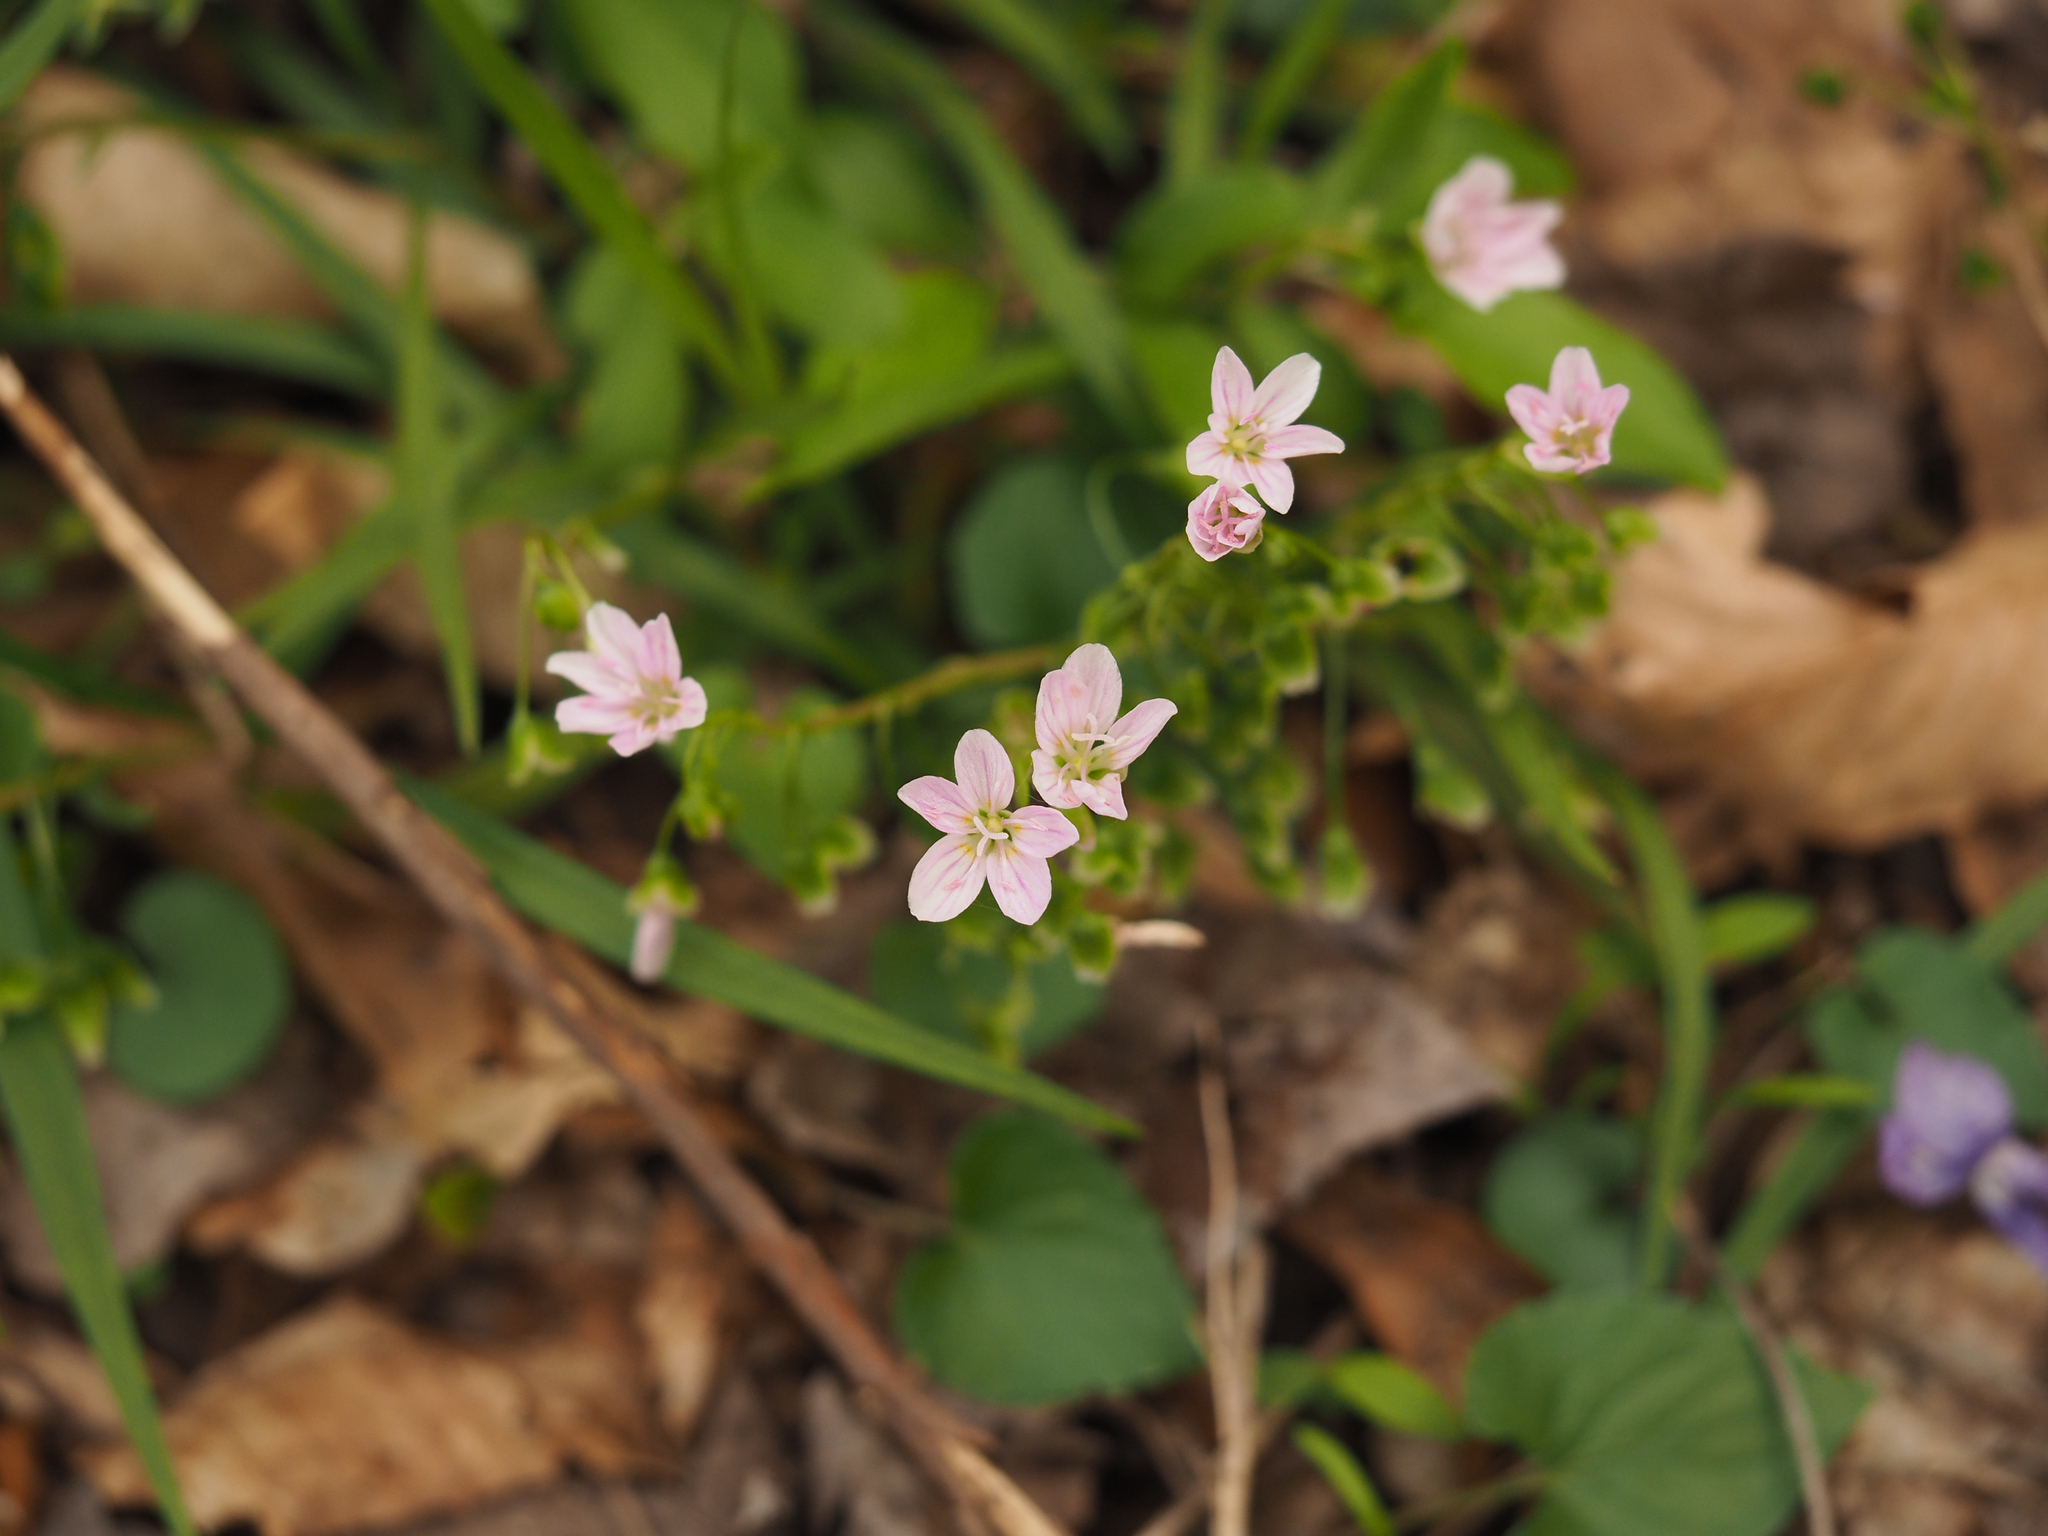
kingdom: Plantae
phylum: Tracheophyta
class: Magnoliopsida
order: Caryophyllales
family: Montiaceae
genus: Claytonia
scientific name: Claytonia virginica
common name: Virginia springbeauty
